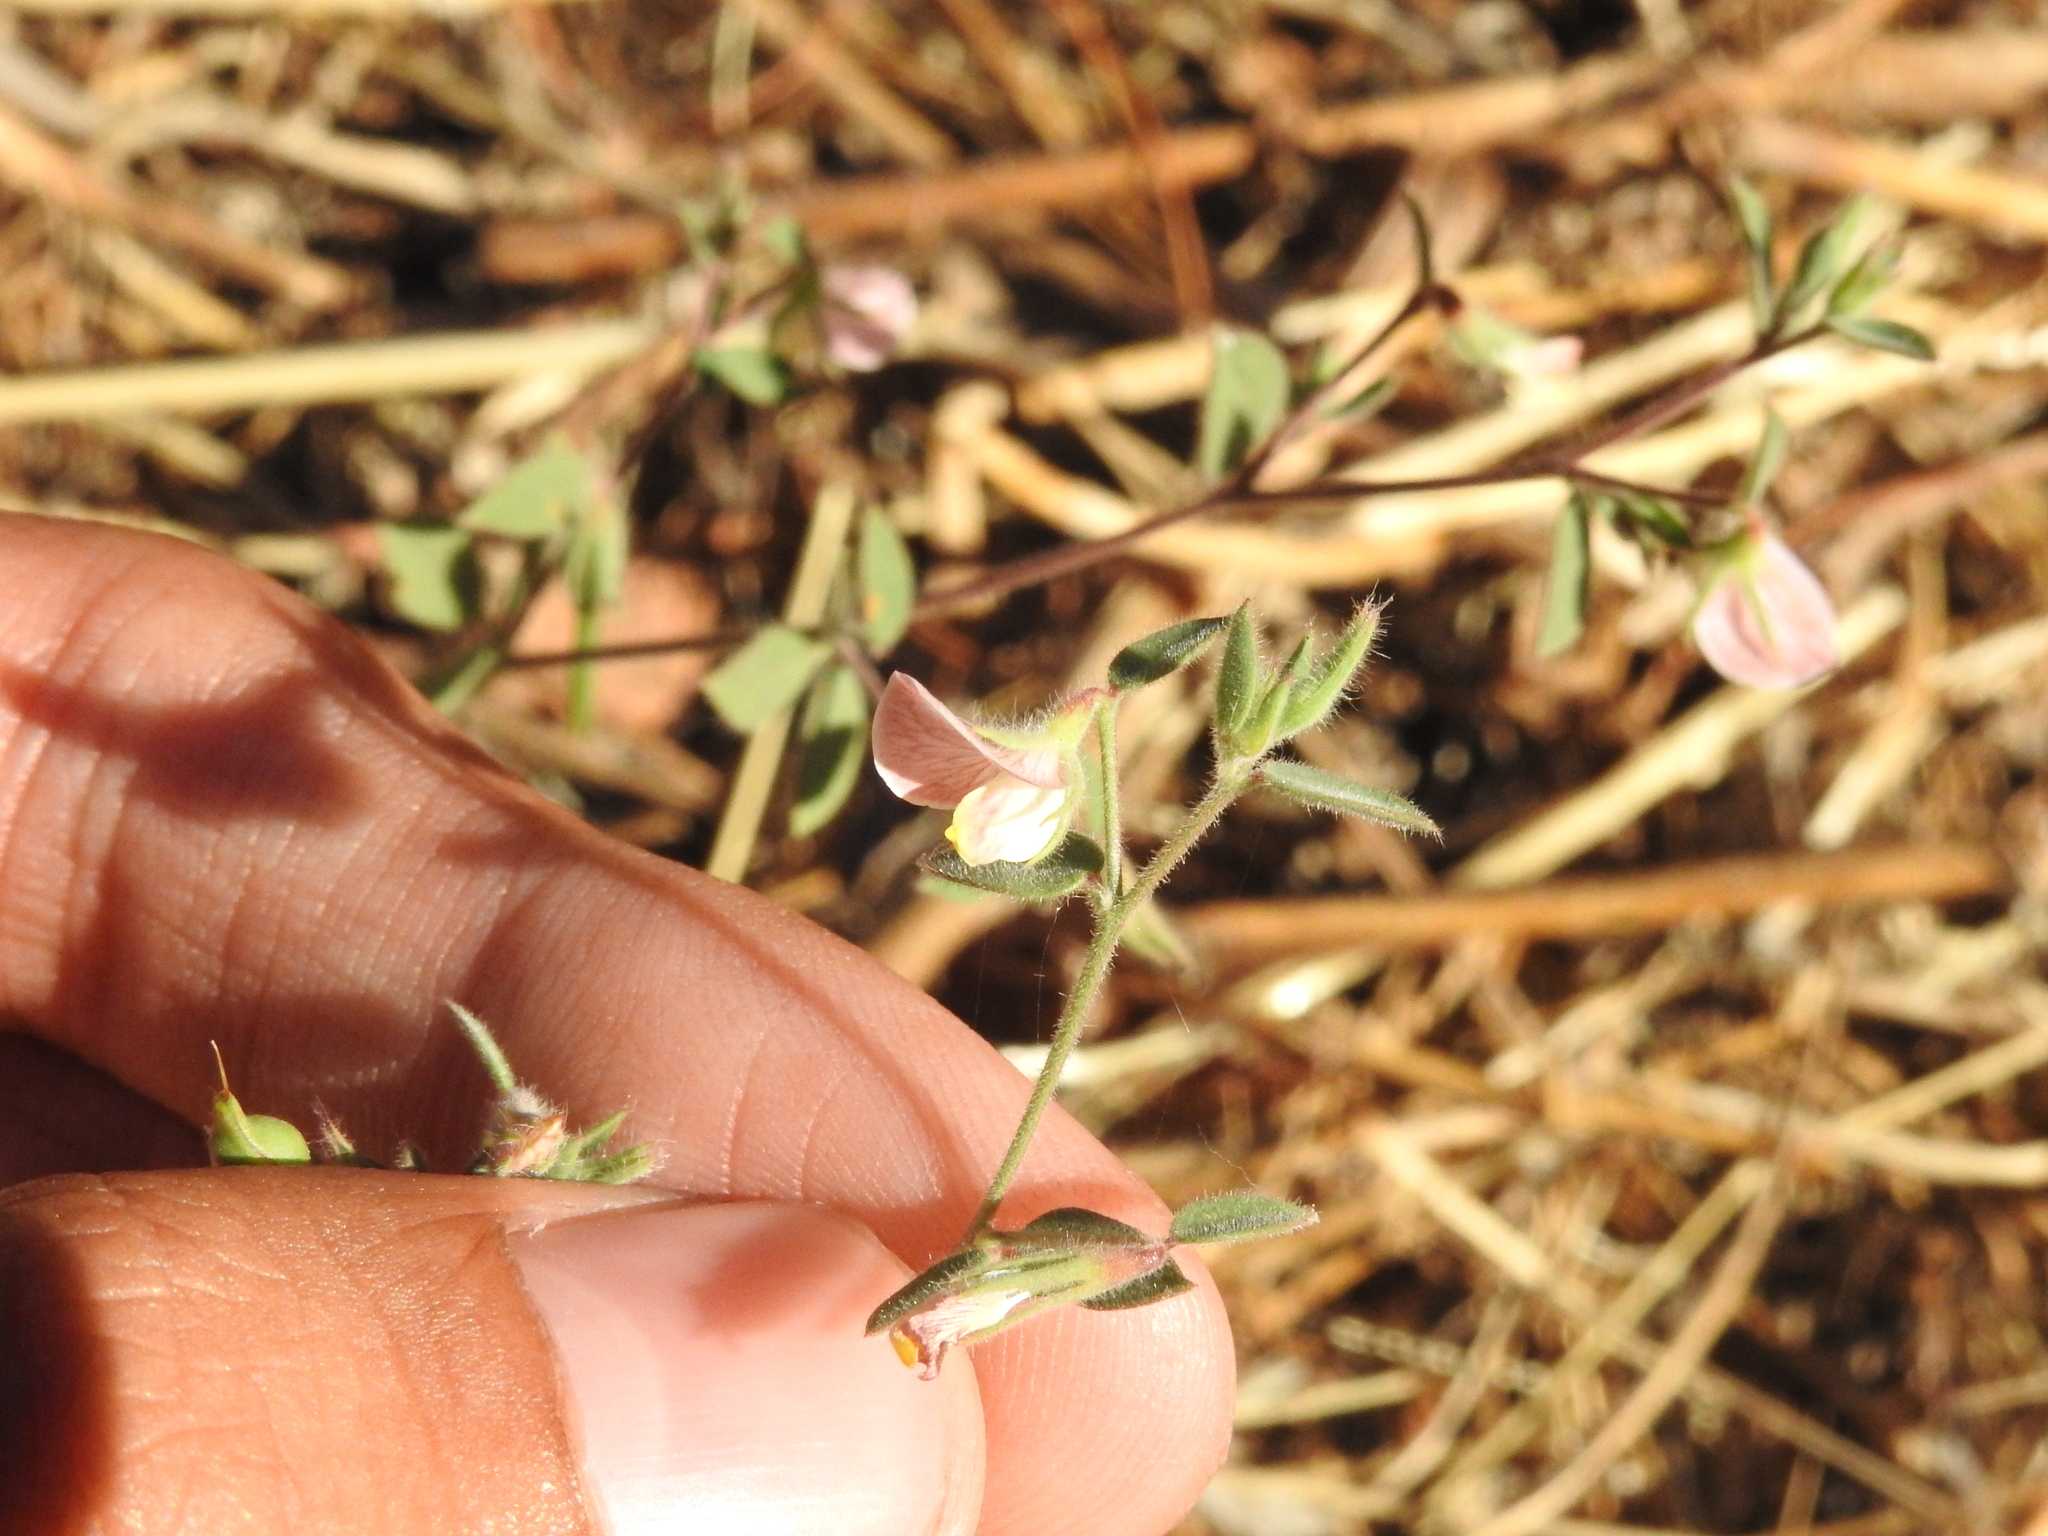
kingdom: Plantae
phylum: Tracheophyta
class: Magnoliopsida
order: Fabales
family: Fabaceae
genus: Acmispon
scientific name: Acmispon americanus
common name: American bird's-foot trefoil
